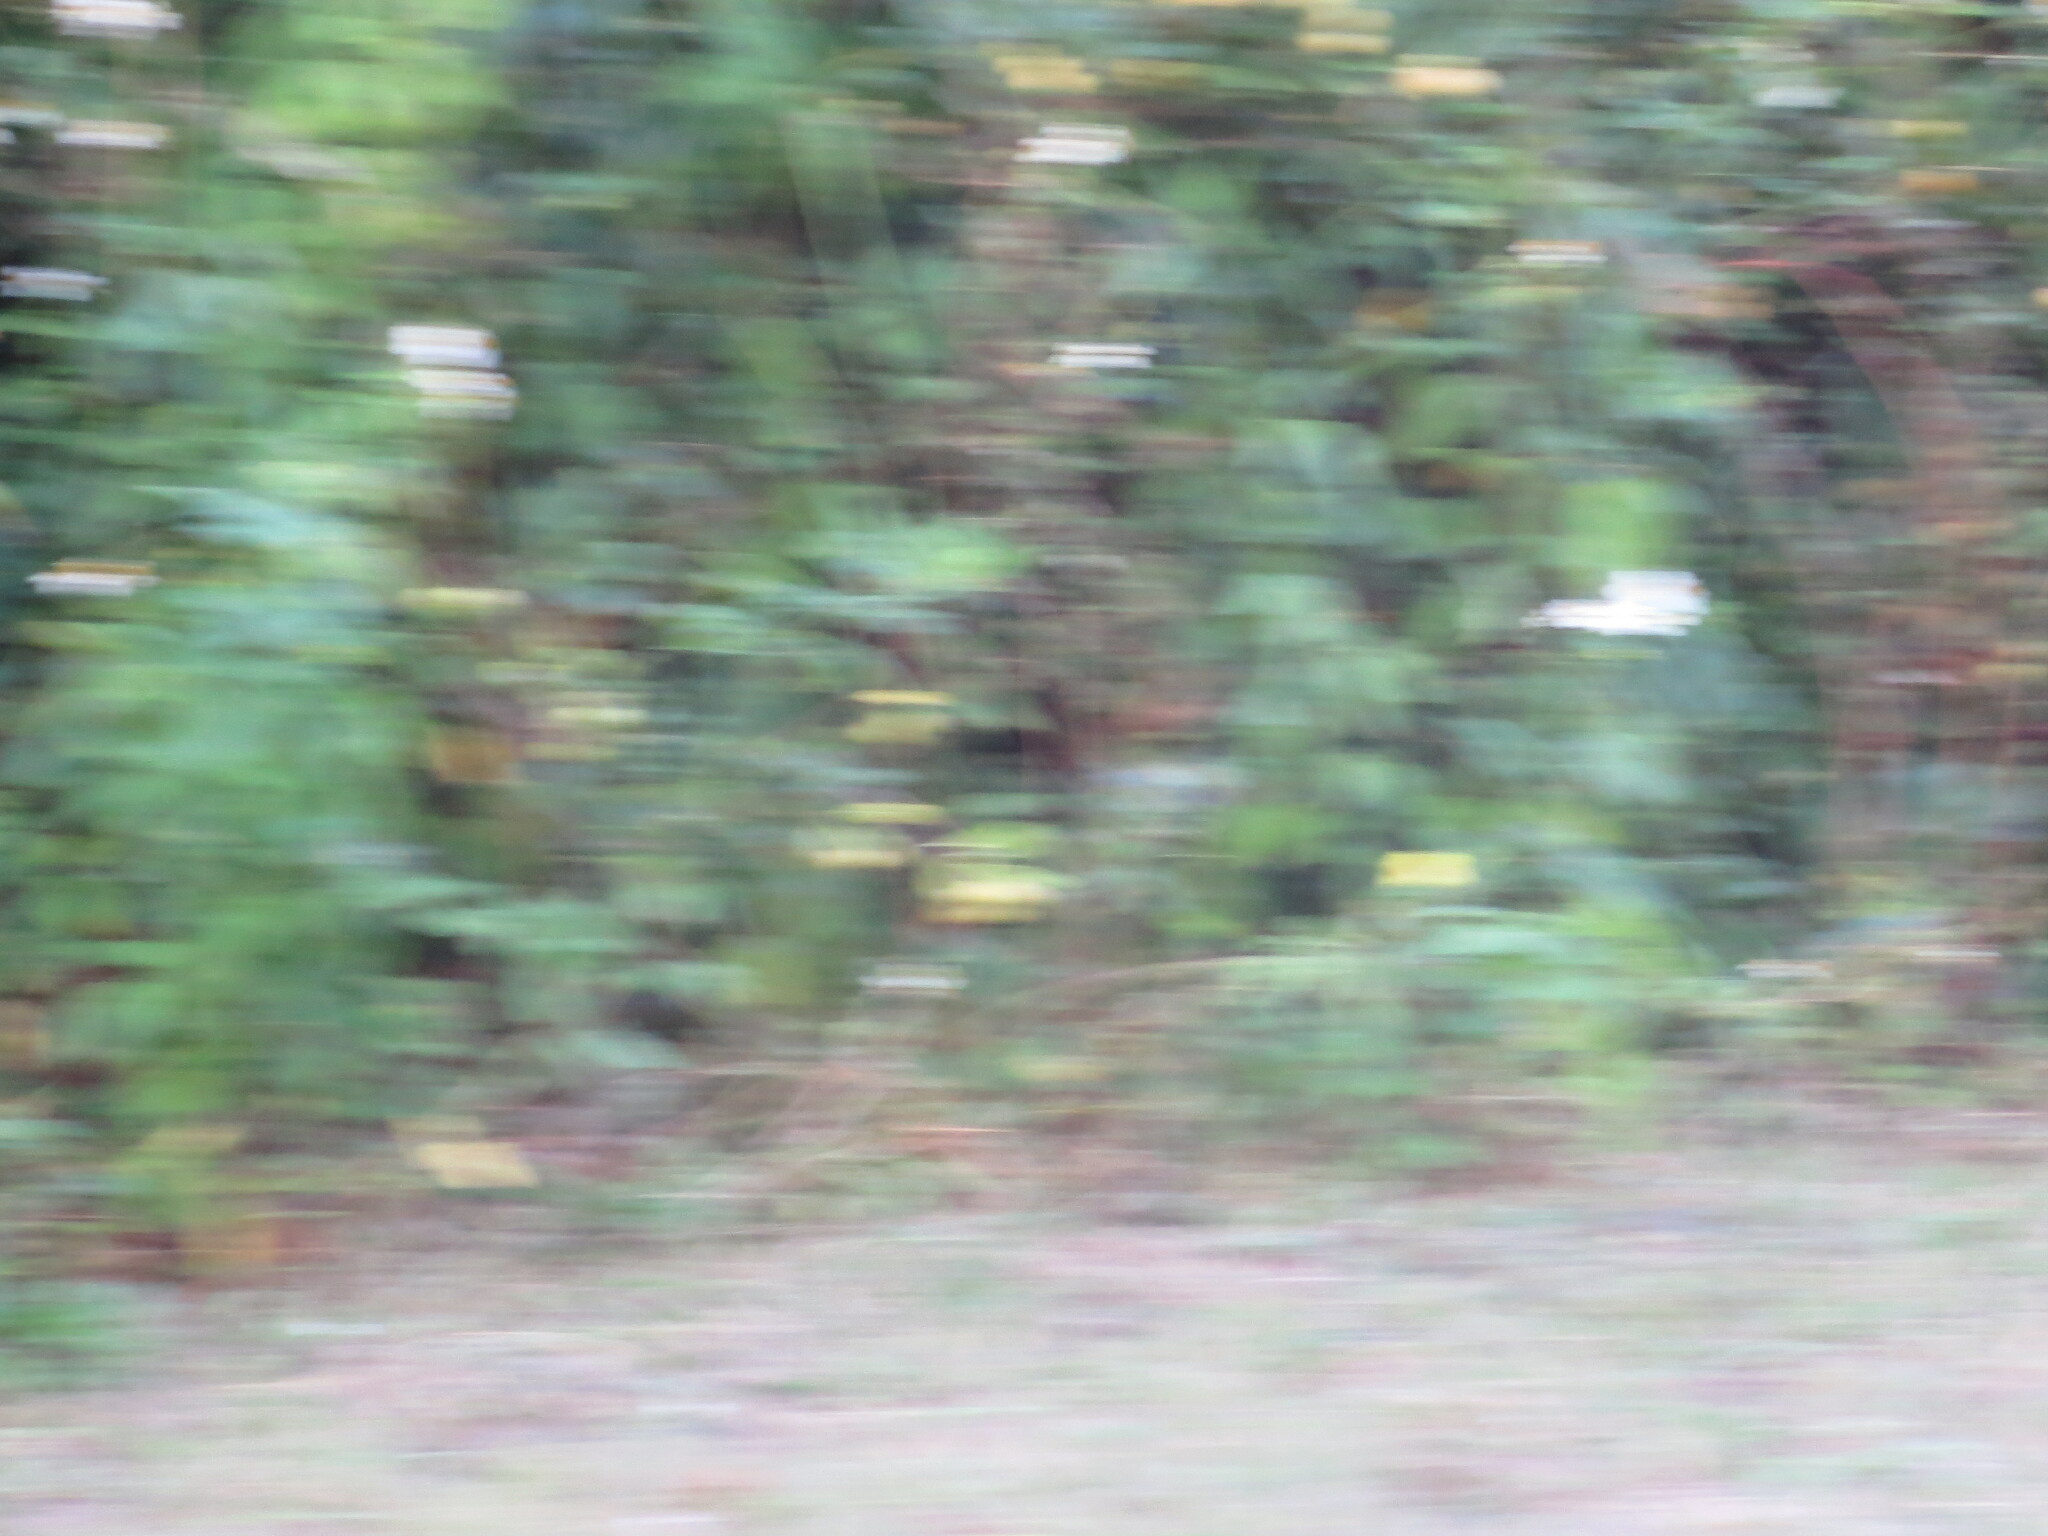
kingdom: Plantae
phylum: Tracheophyta
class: Magnoliopsida
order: Asterales
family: Asteraceae
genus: Bidens
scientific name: Bidens alba
